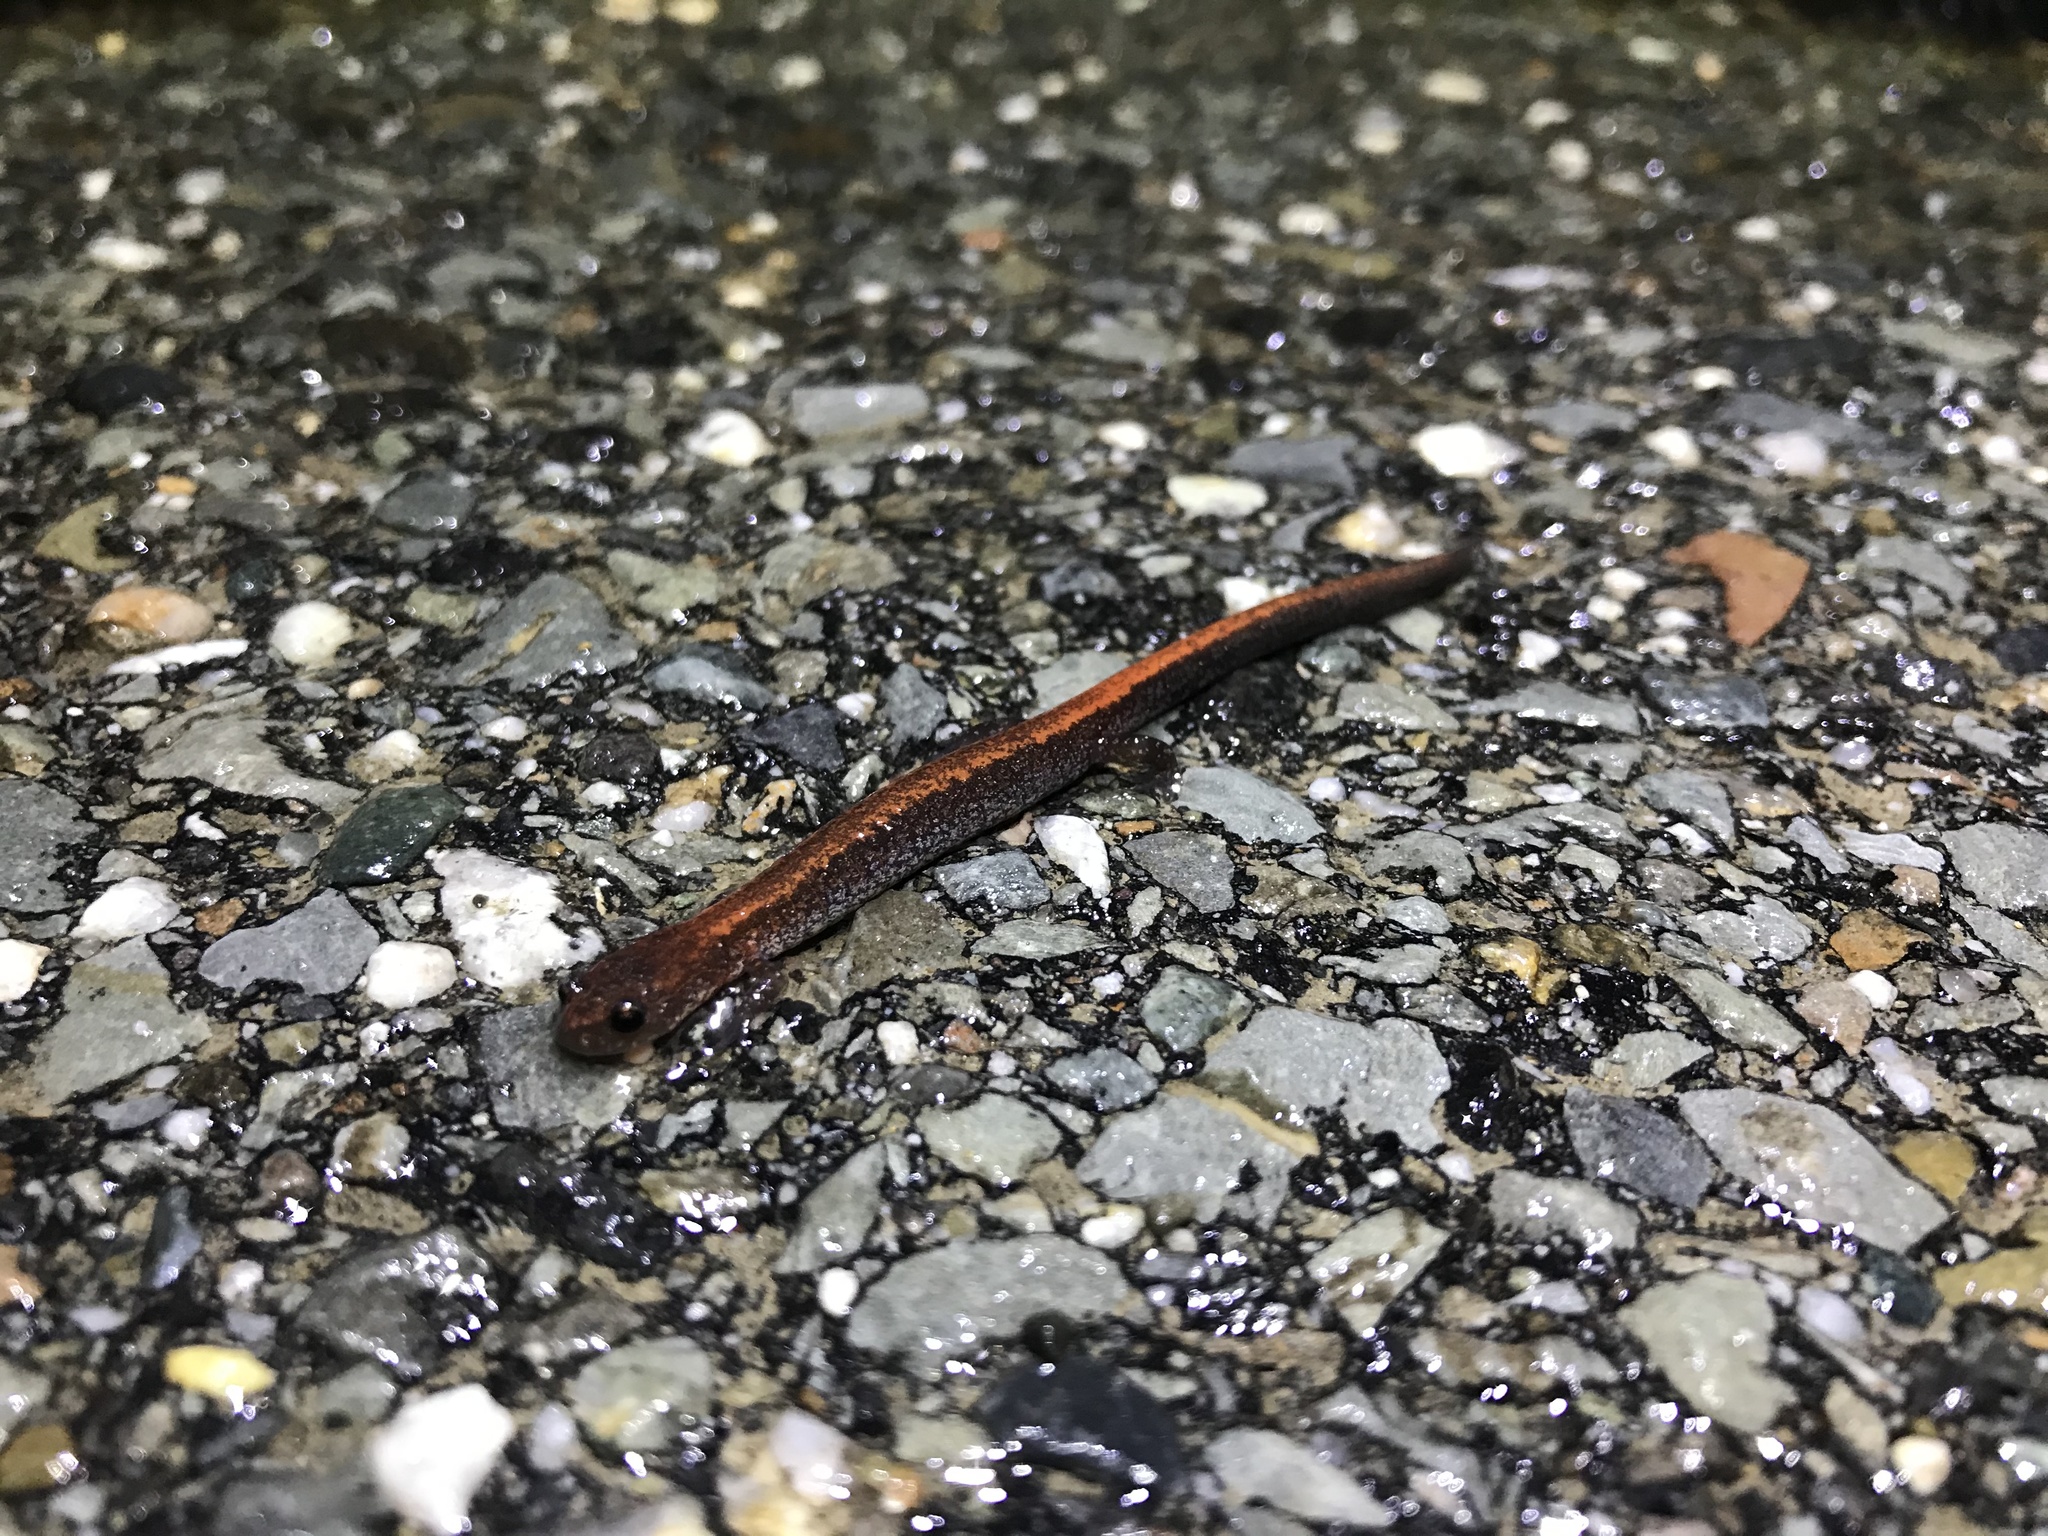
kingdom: Animalia
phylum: Chordata
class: Amphibia
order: Caudata
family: Plethodontidae
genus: Plethodon
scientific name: Plethodon cinereus
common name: Redback salamander
